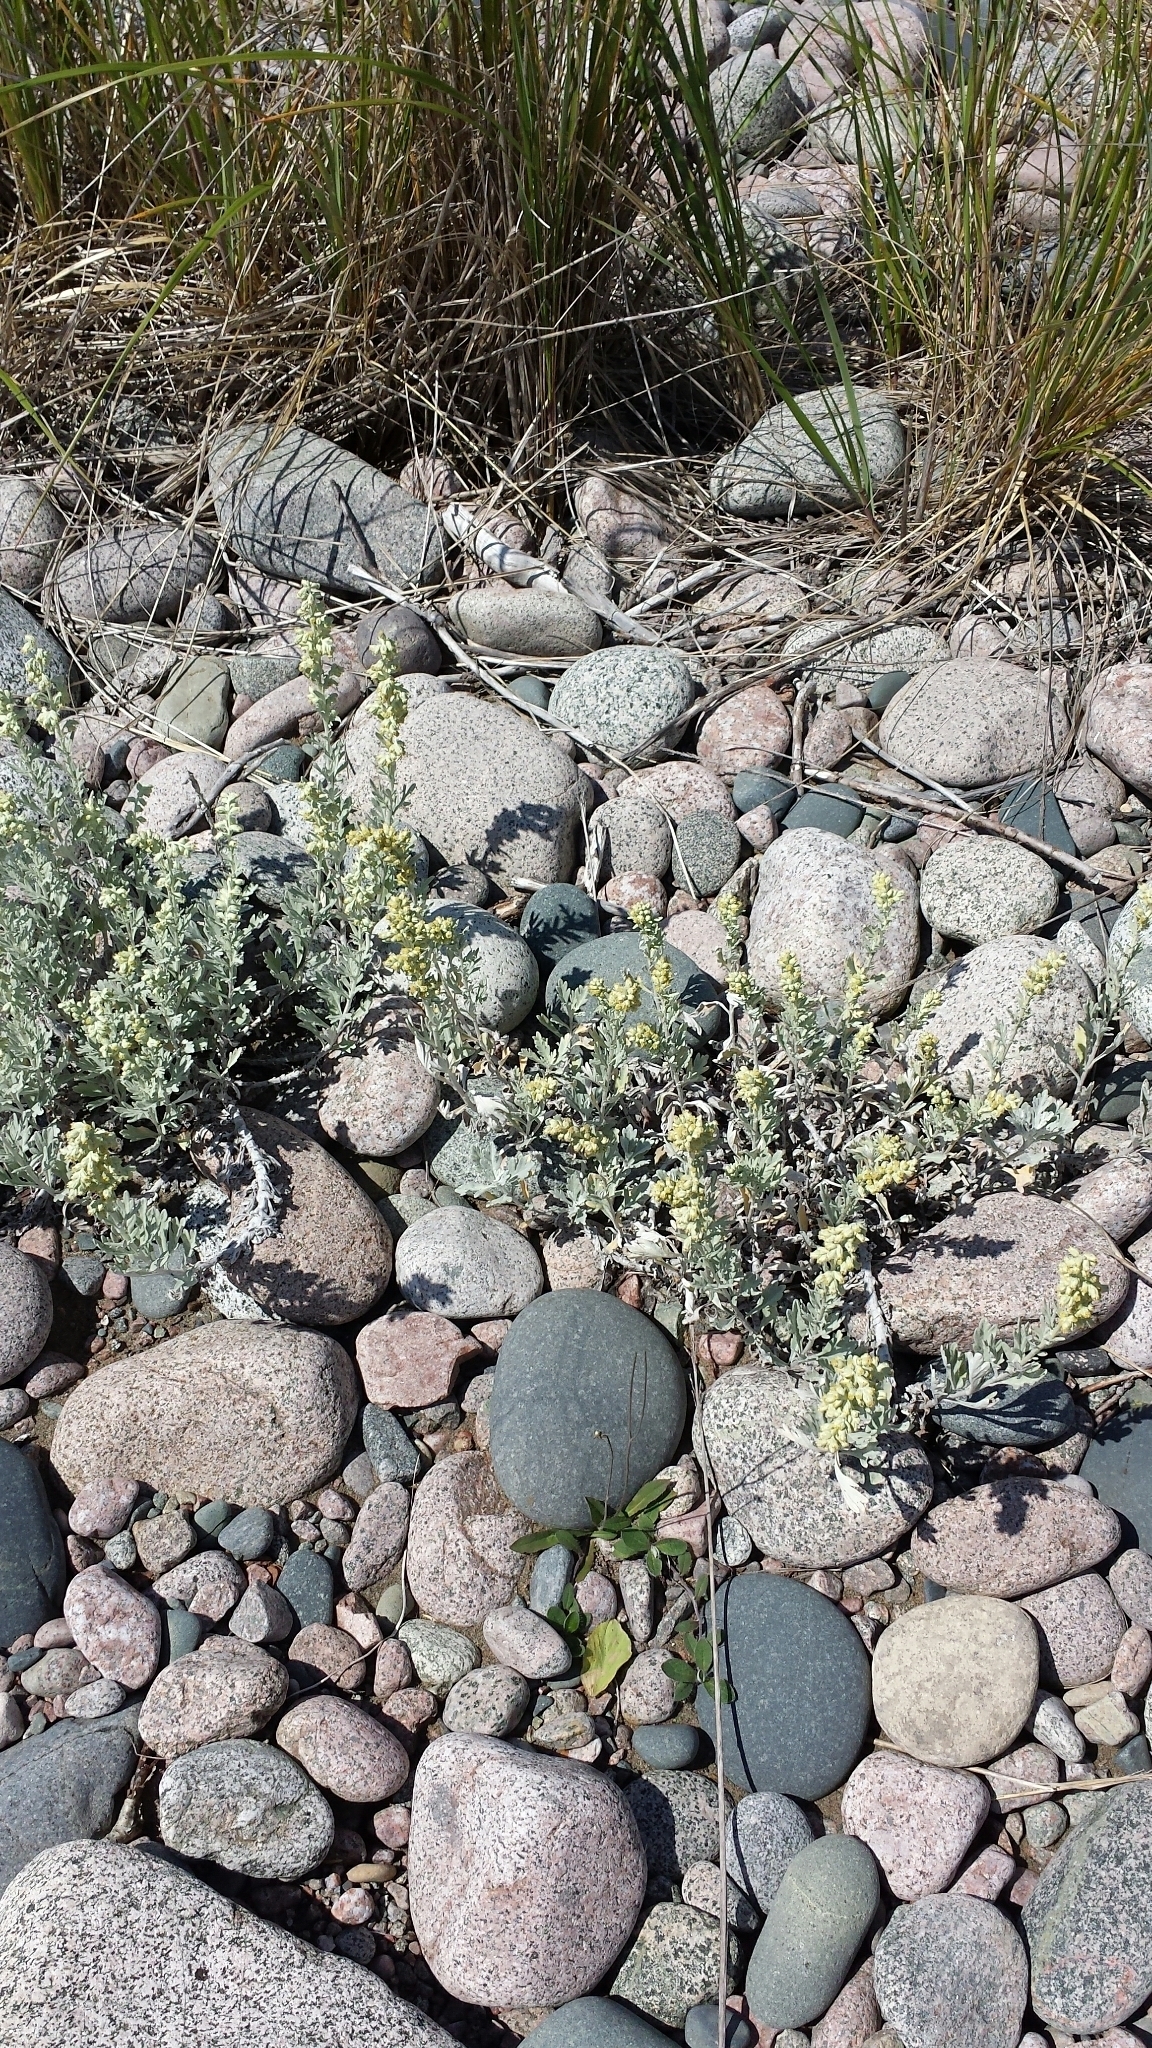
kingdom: Plantae
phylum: Tracheophyta
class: Magnoliopsida
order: Asterales
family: Asteraceae
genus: Artemisia
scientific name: Artemisia stelleriana
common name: Beach wormwood
